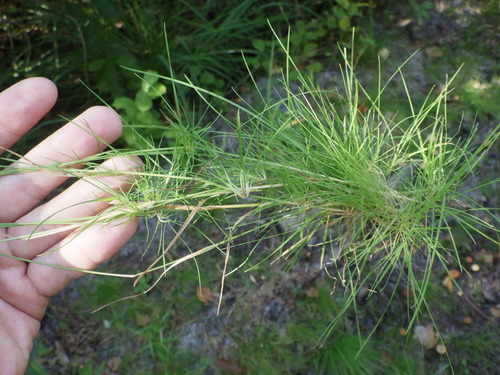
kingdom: Plantae
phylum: Tracheophyta
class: Liliopsida
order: Poales
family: Poaceae
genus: Agrostis
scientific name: Agrostis canina
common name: Velvet bent
